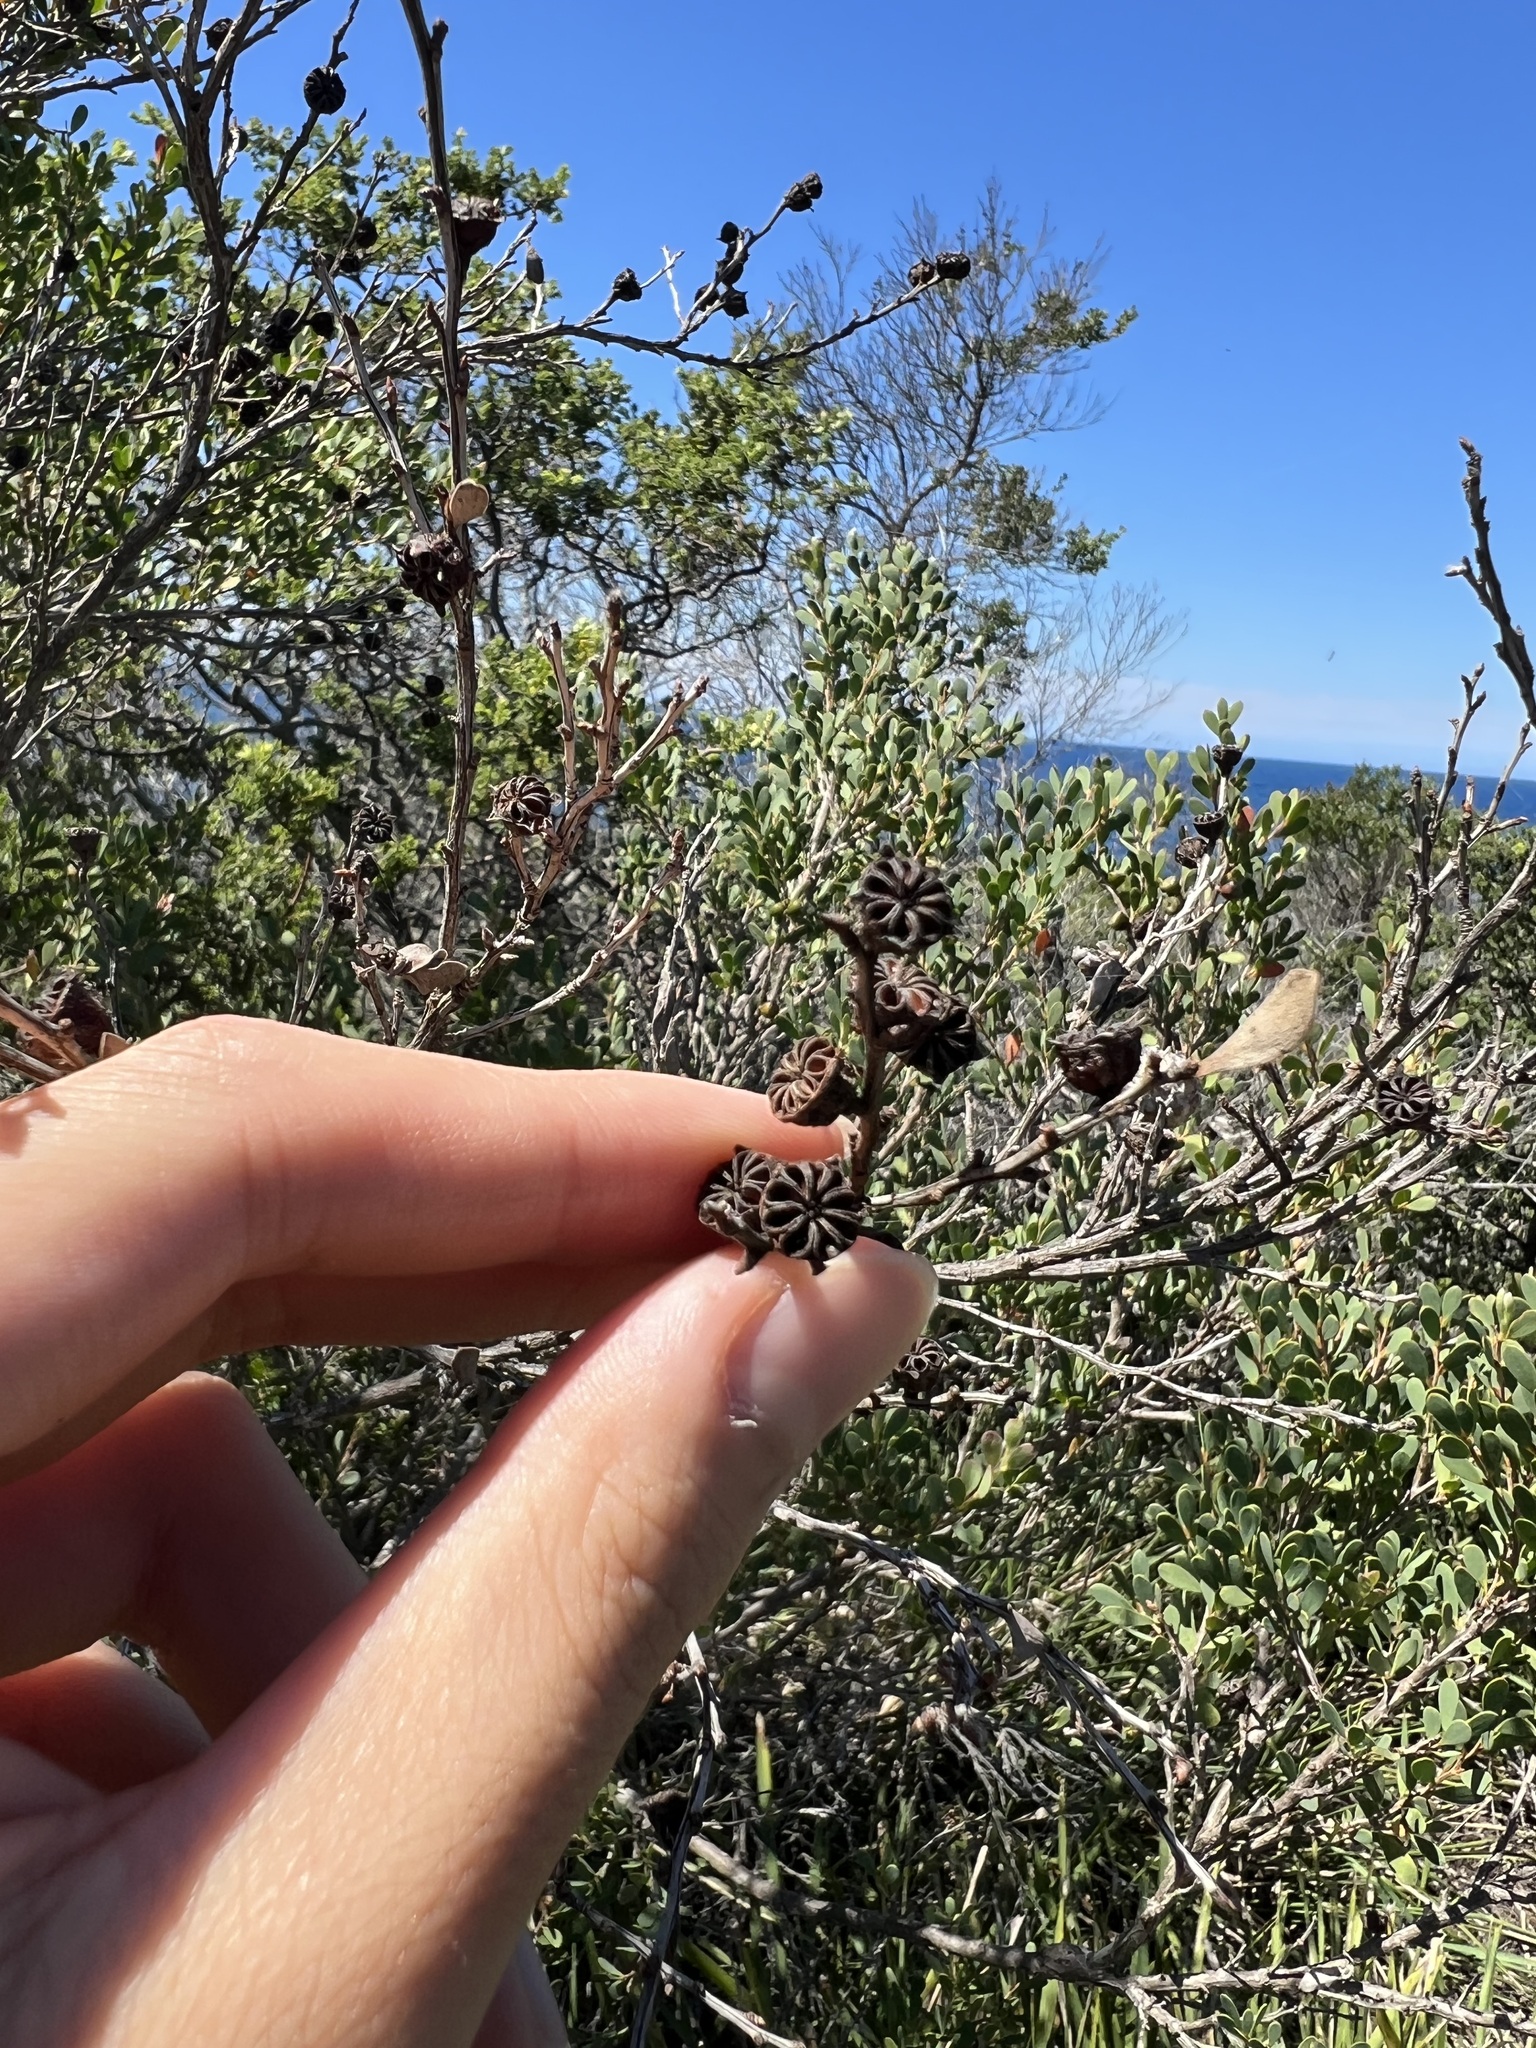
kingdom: Plantae
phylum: Tracheophyta
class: Magnoliopsida
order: Myrtales
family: Myrtaceae
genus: Leptospermum
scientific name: Leptospermum laevigatum
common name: Australian teatree
